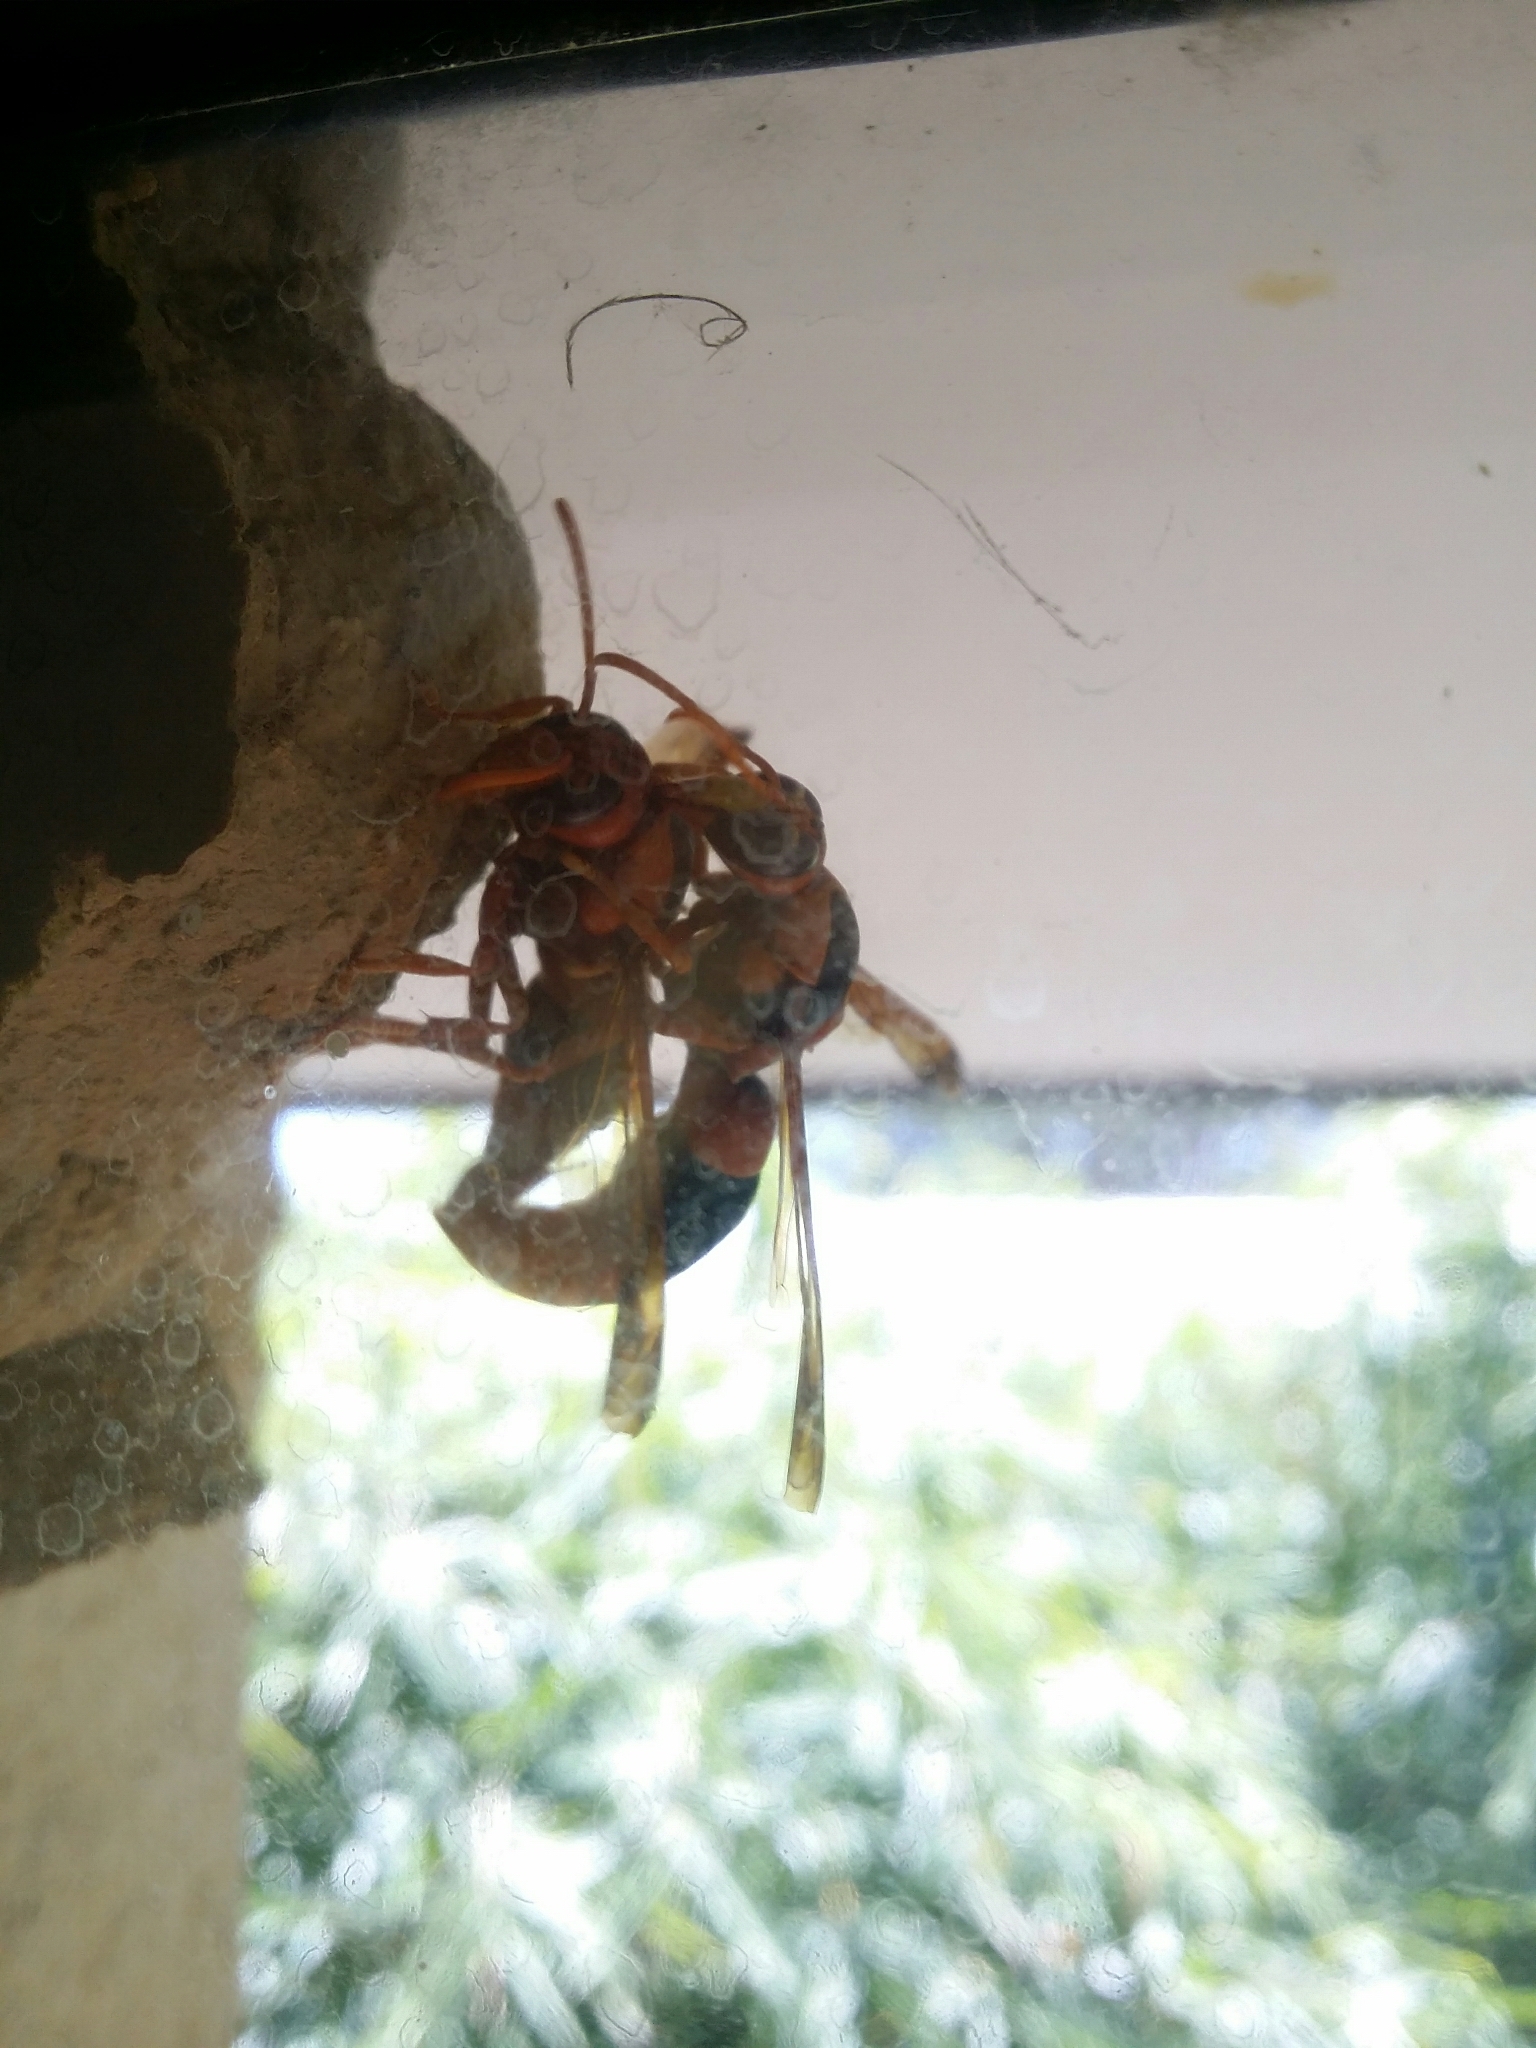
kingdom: Animalia
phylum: Arthropoda
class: Insecta
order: Hymenoptera
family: Eumenidae
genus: Abispa
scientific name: Abispa ephippium
